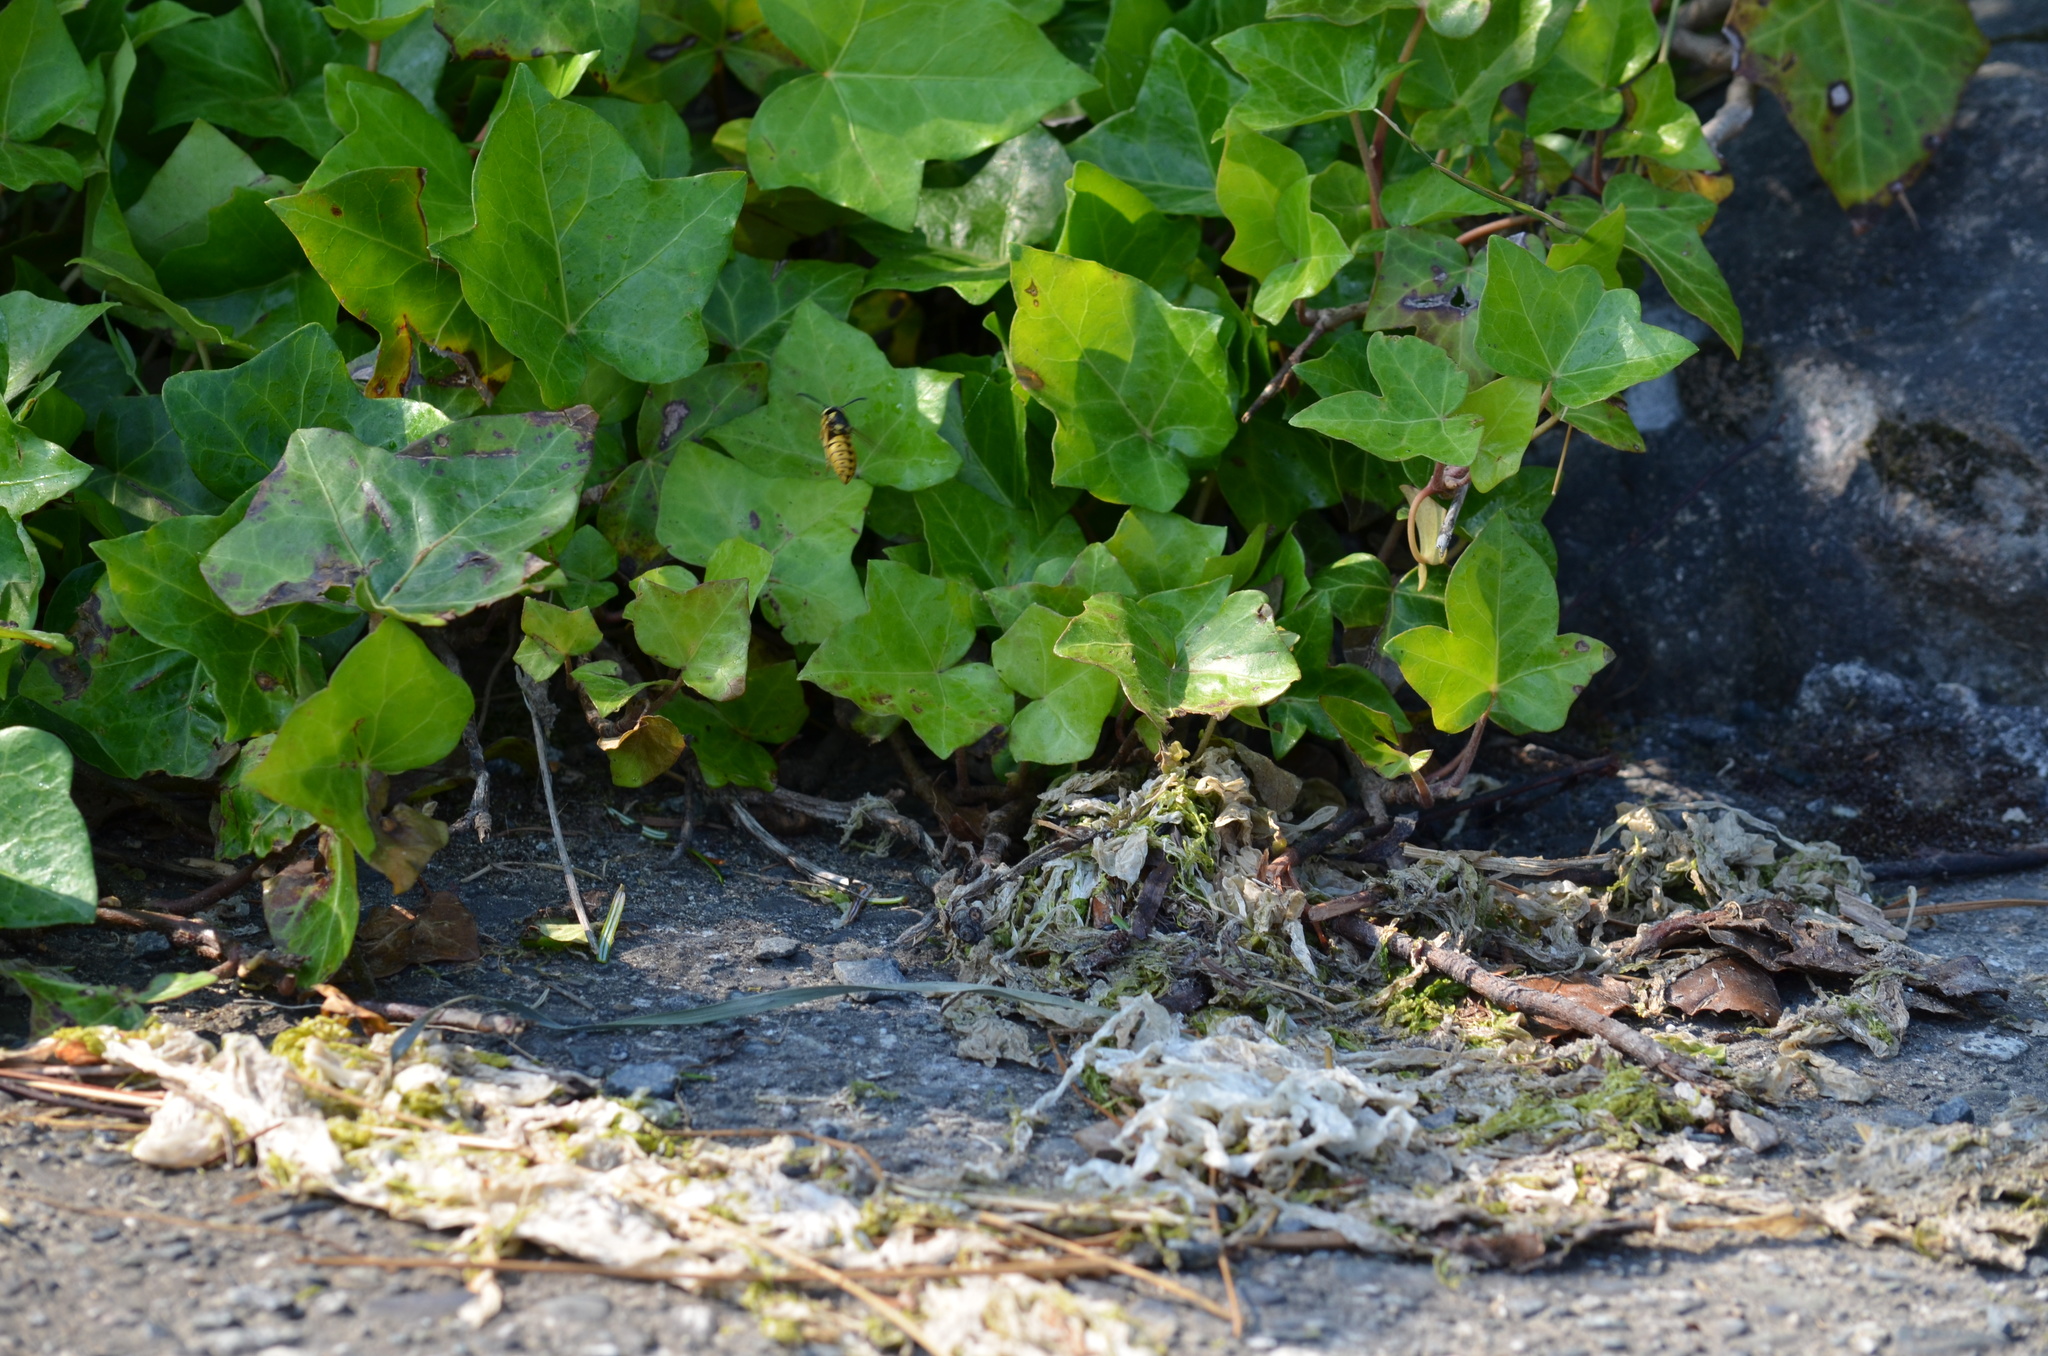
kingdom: Animalia
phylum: Arthropoda
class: Insecta
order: Hymenoptera
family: Vespidae
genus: Vespula
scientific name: Vespula pensylvanica
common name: Western yellowjacket
